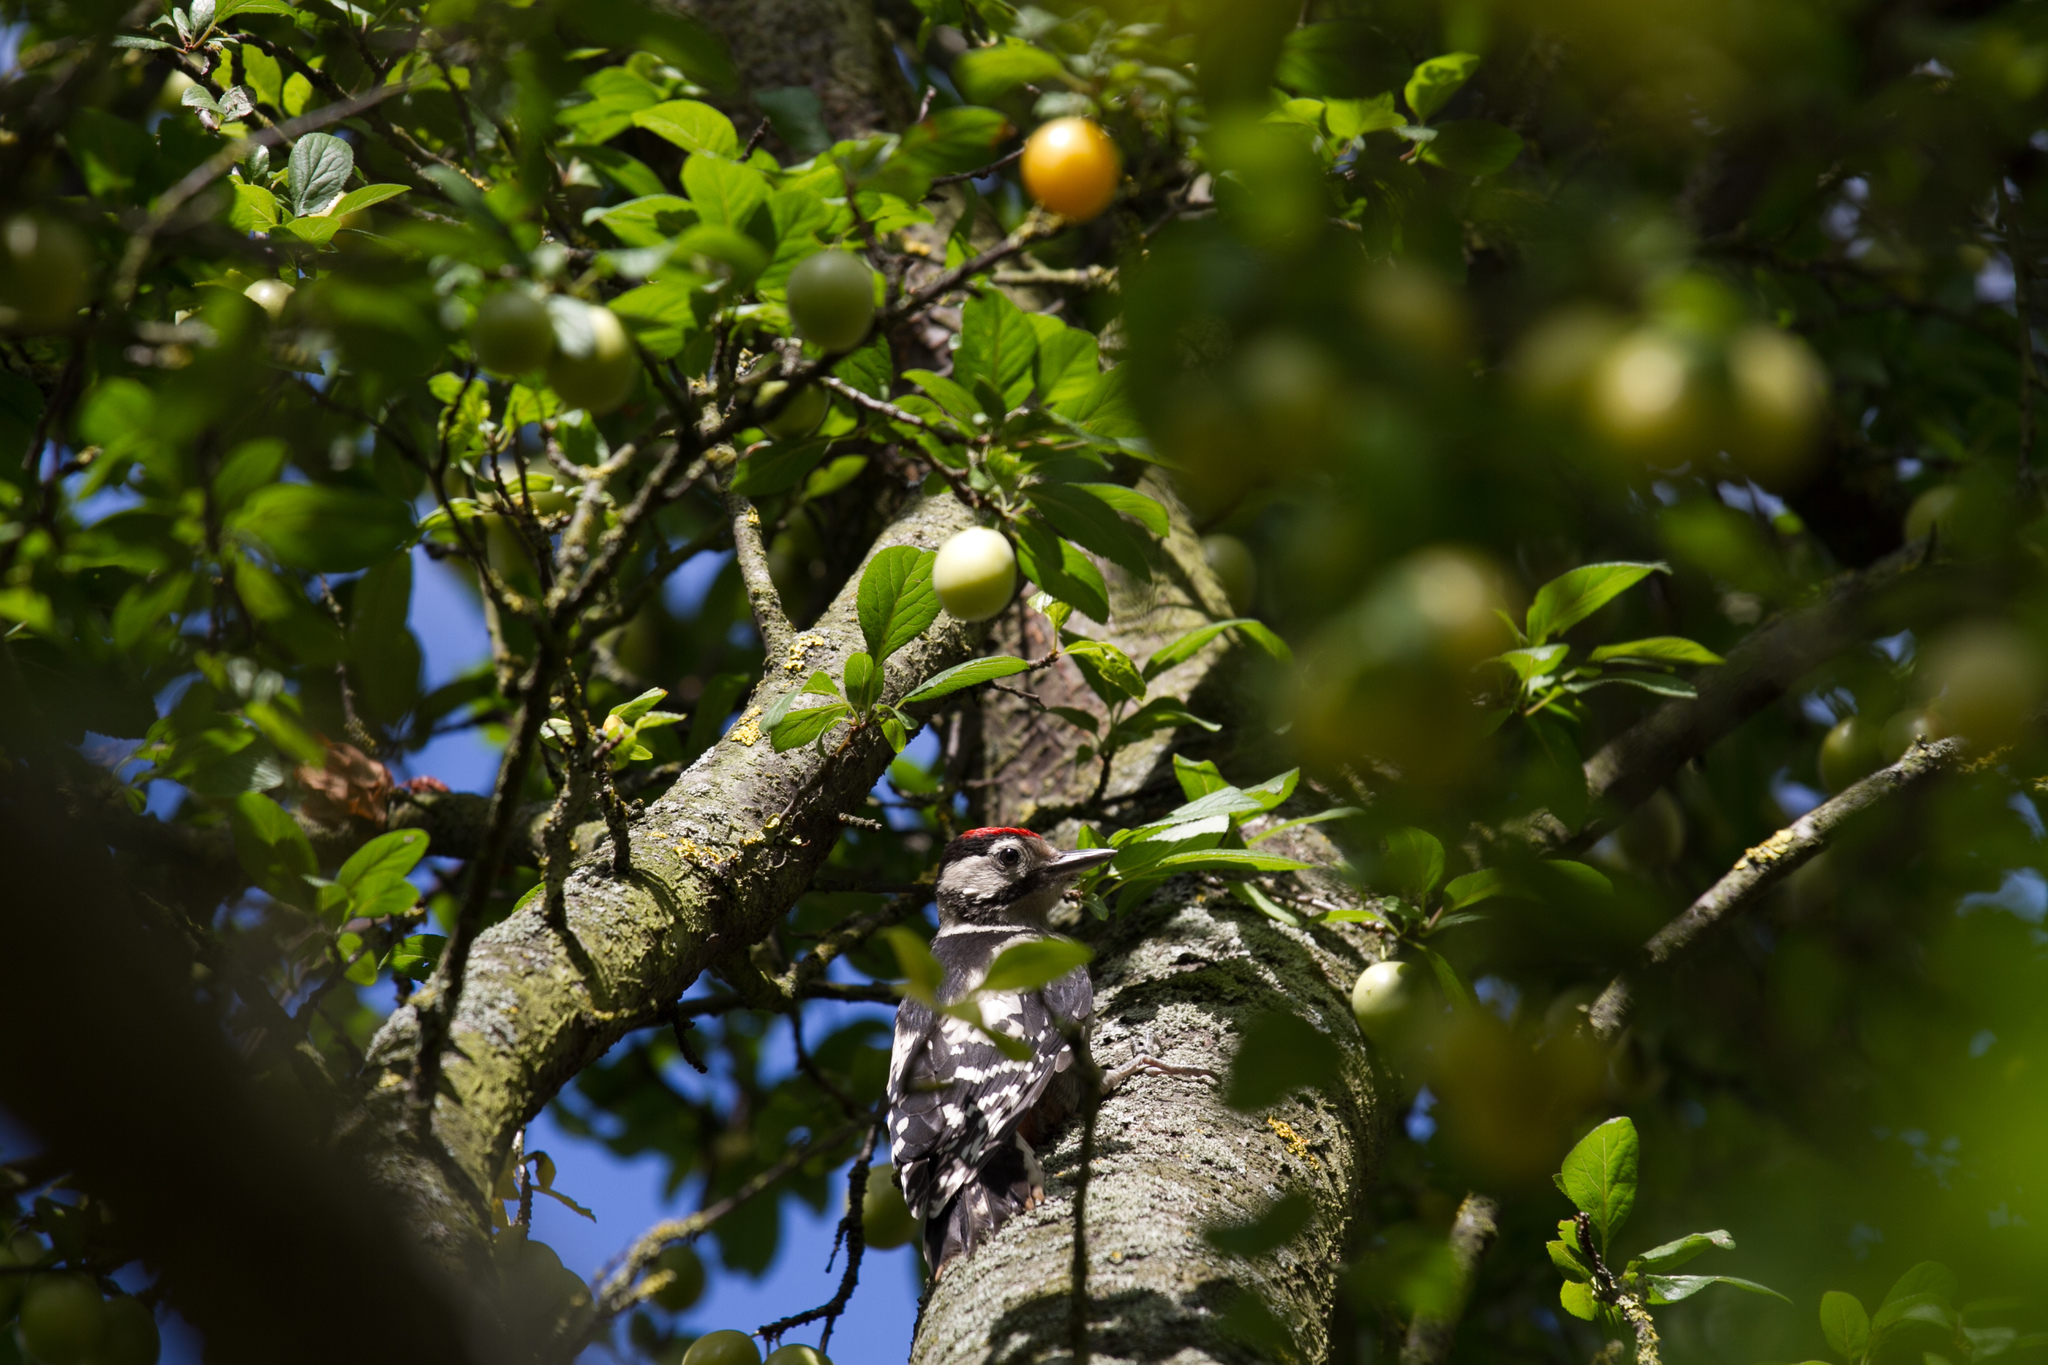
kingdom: Animalia
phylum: Chordata
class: Aves
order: Piciformes
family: Picidae
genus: Dendrocopos
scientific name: Dendrocopos major
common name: Great spotted woodpecker
